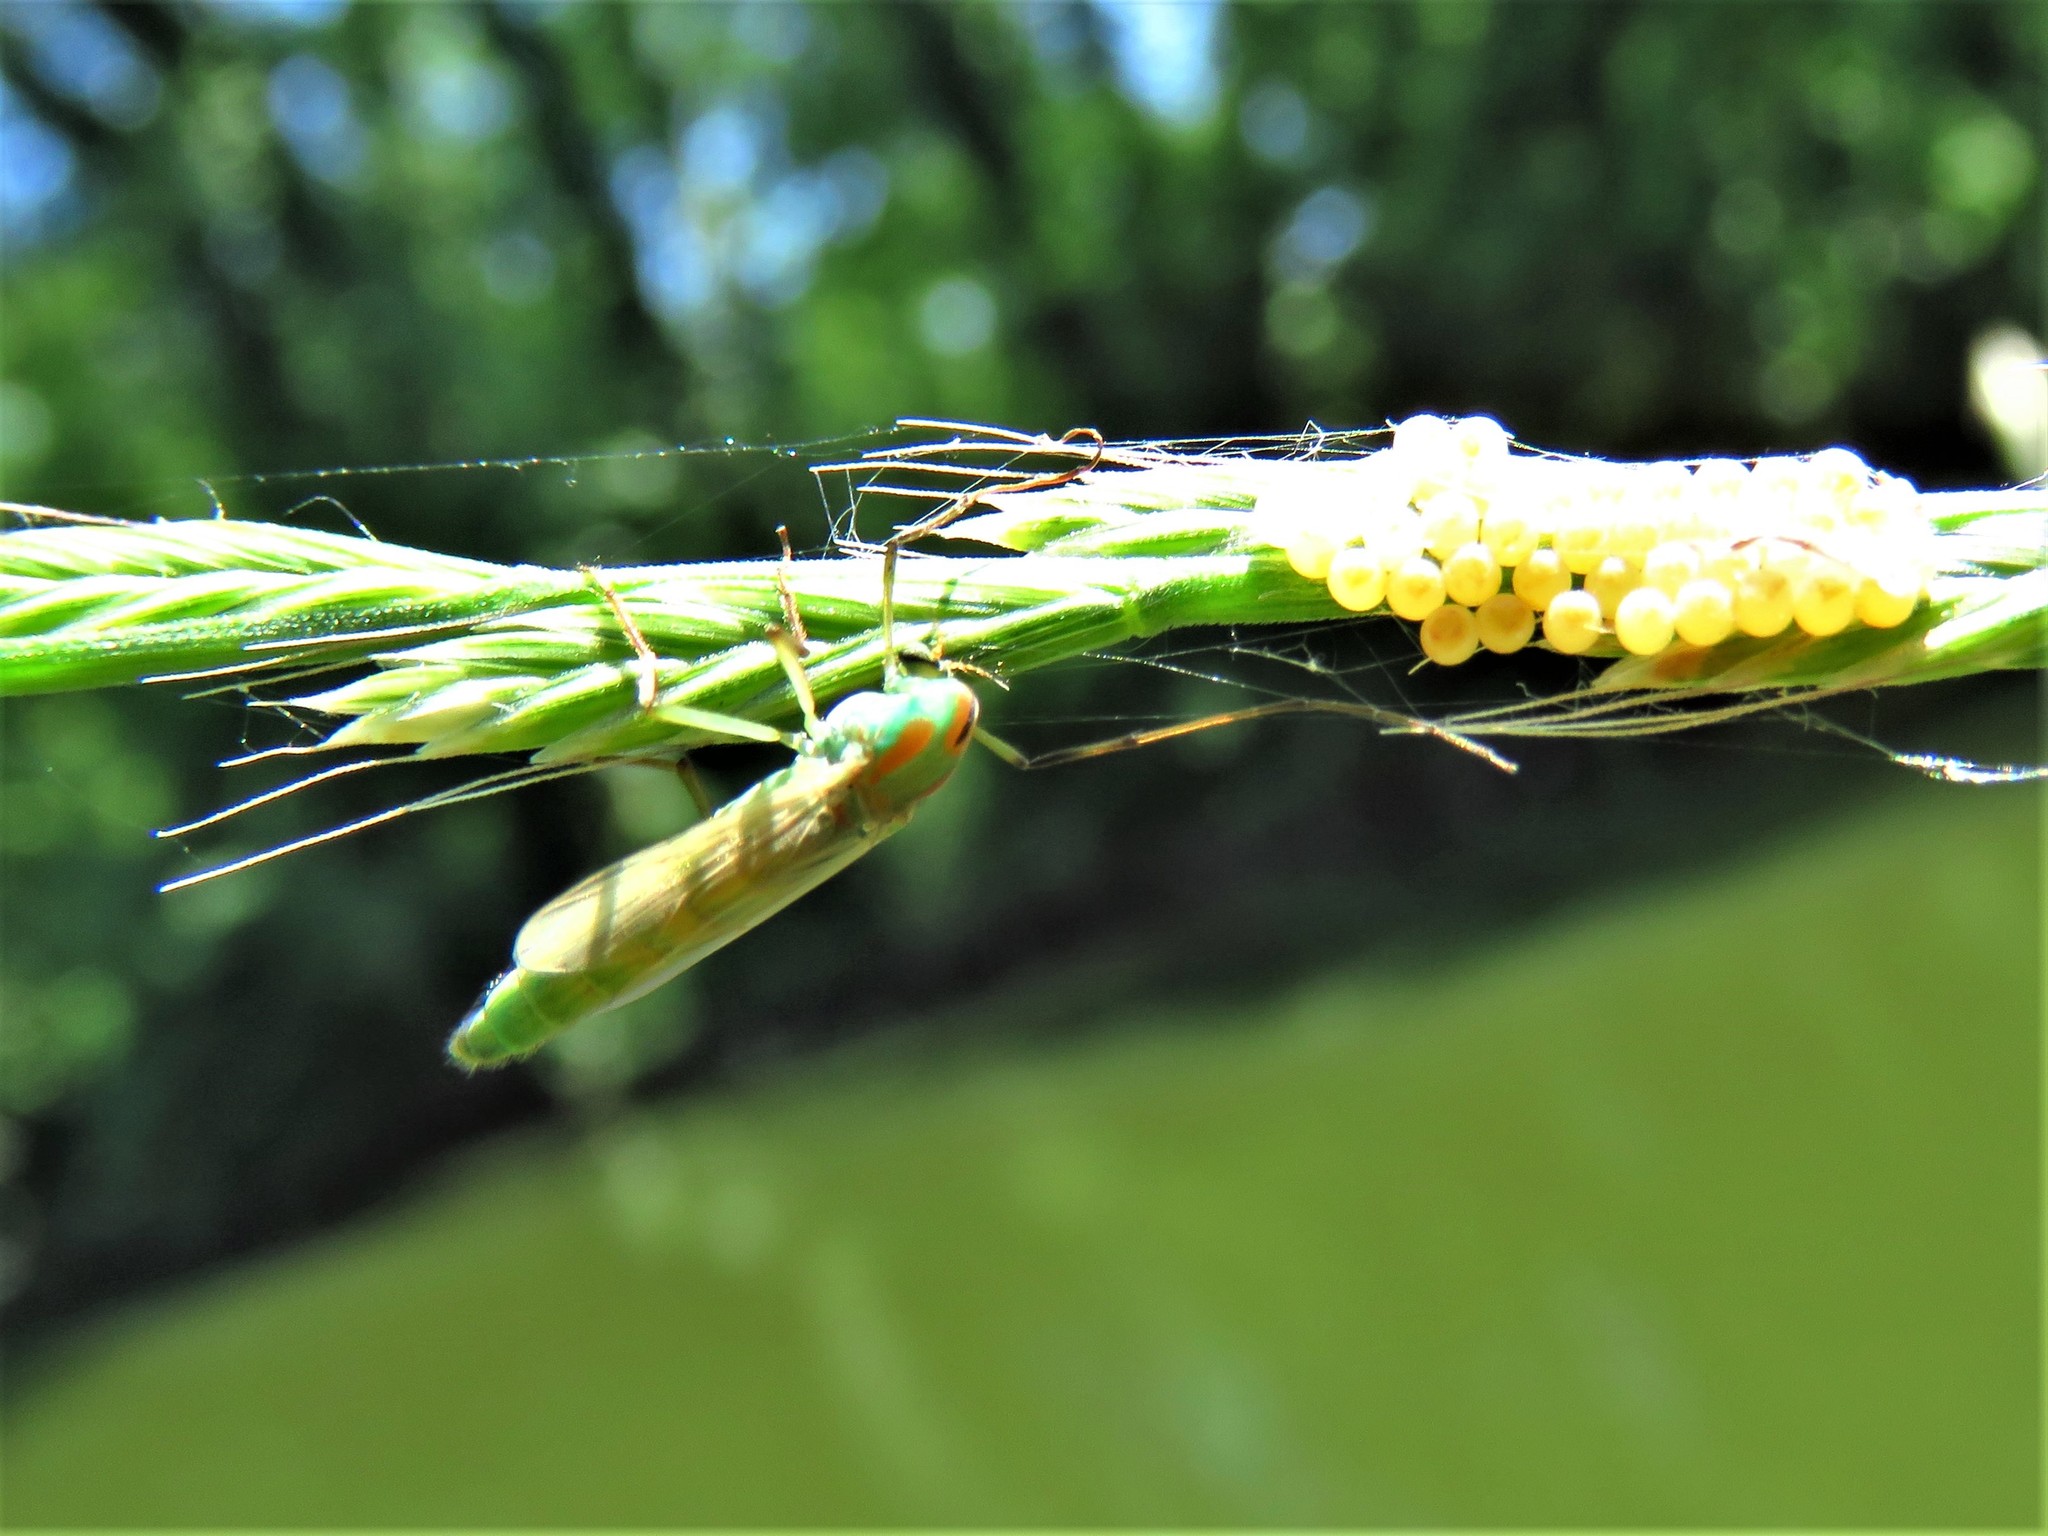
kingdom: Animalia
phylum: Arthropoda
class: Insecta
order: Diptera
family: Chironomidae
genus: Axarus
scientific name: Axarus
